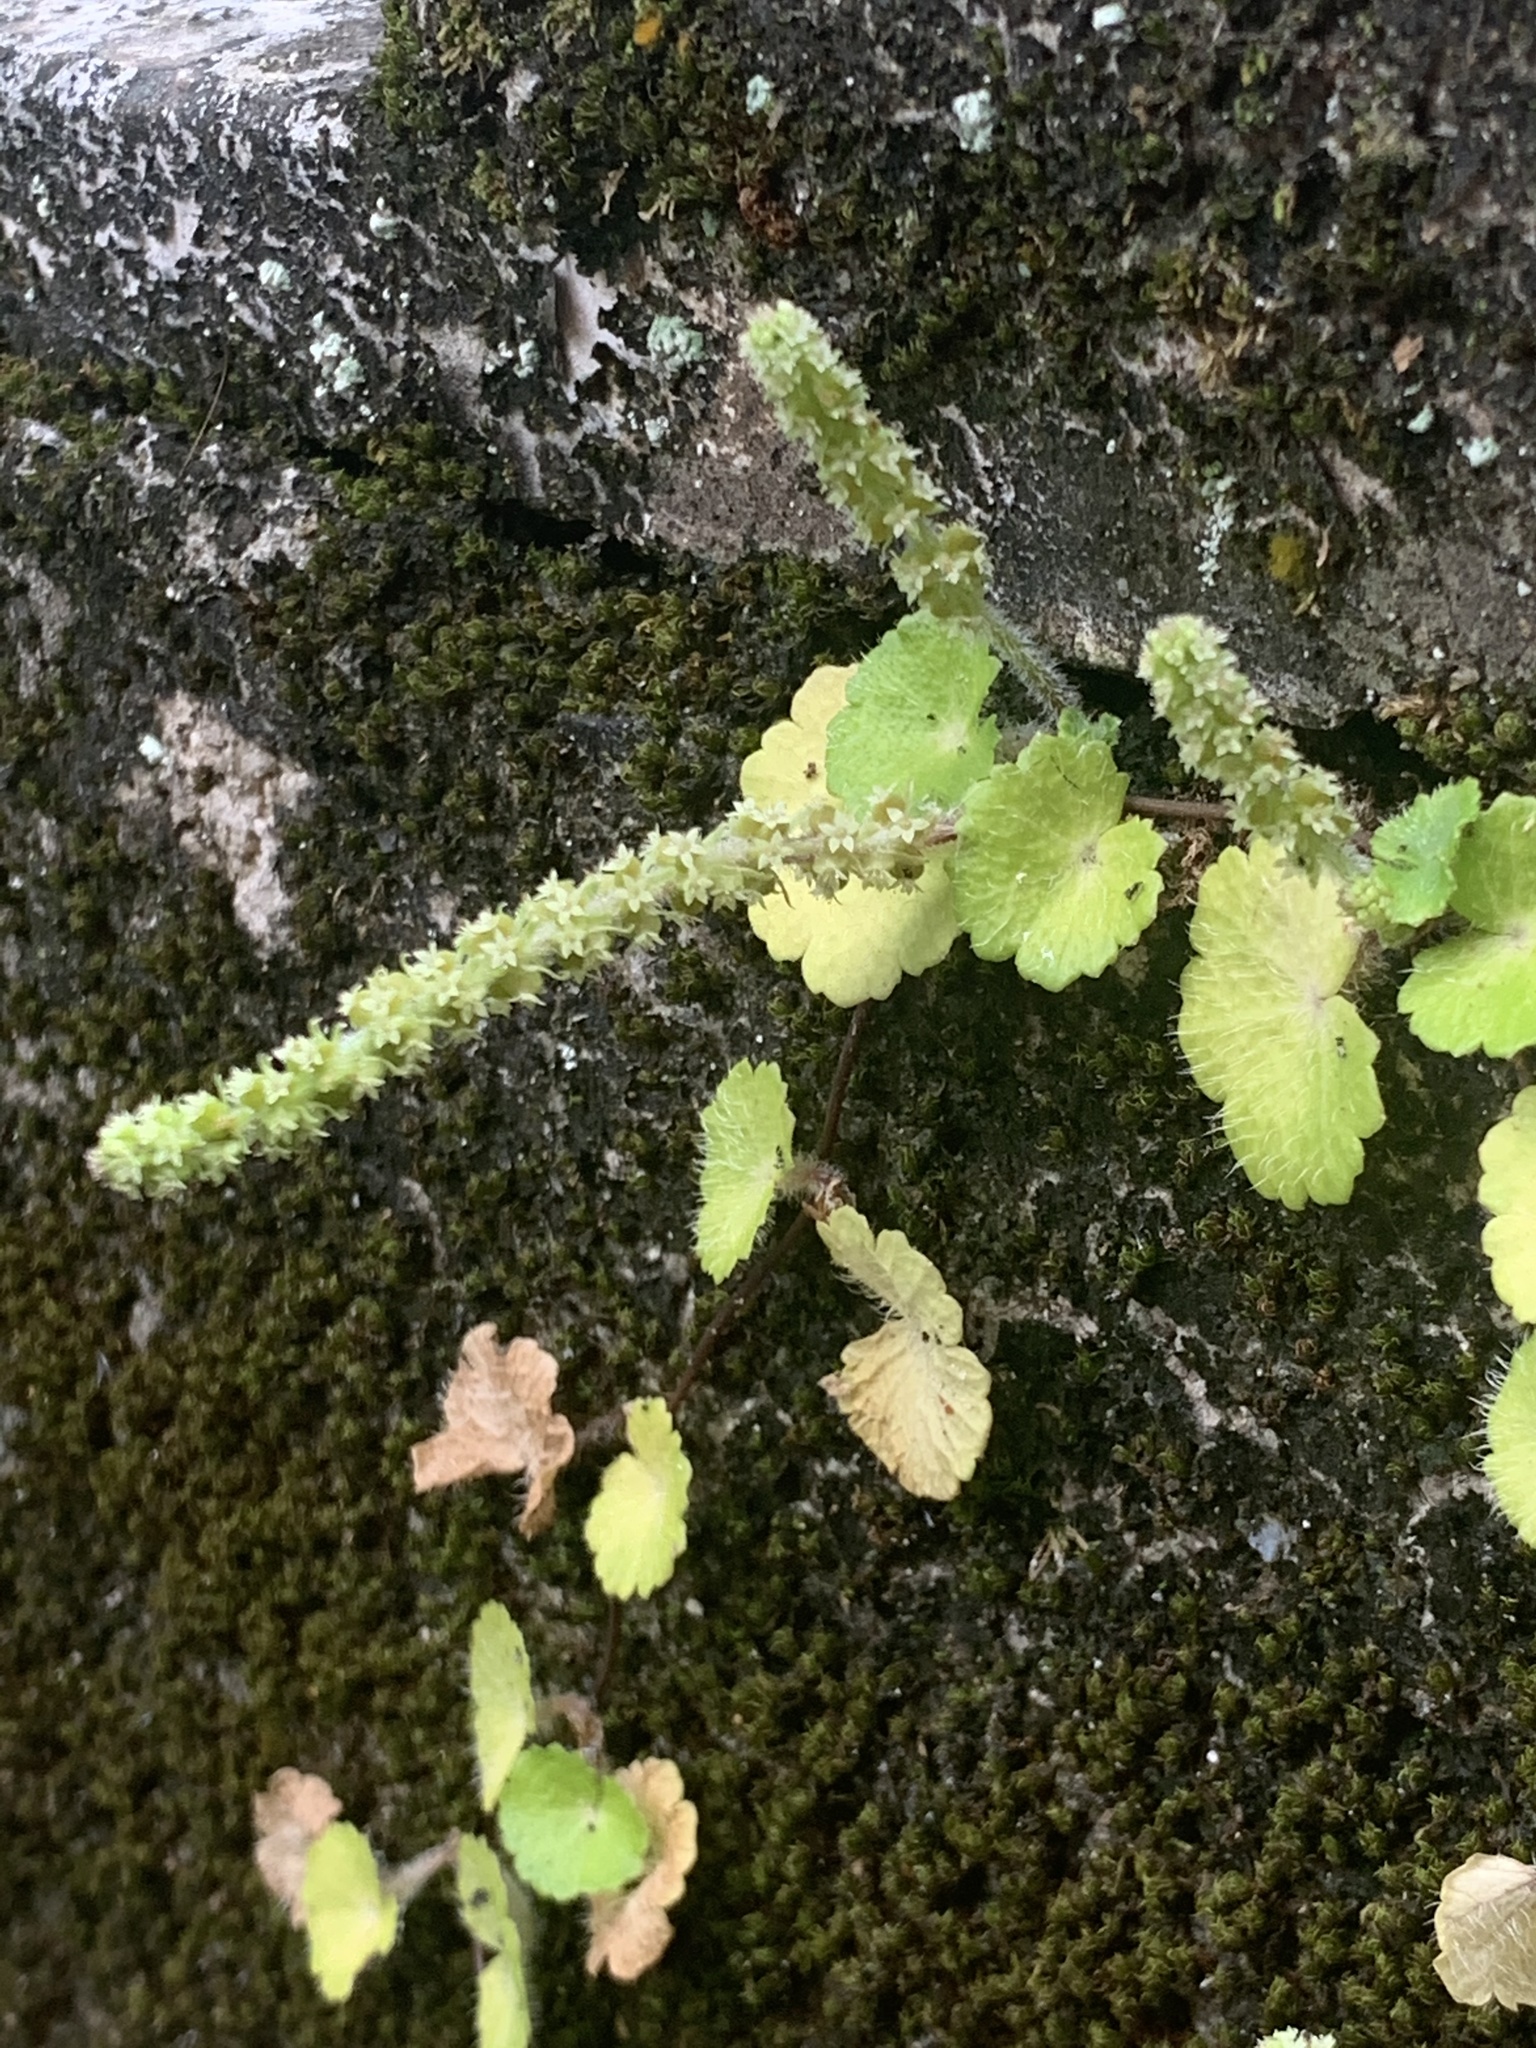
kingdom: Plantae
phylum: Tracheophyta
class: Magnoliopsida
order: Apiales
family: Araliaceae
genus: Hydrocotyle
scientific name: Hydrocotyle hirsuta
